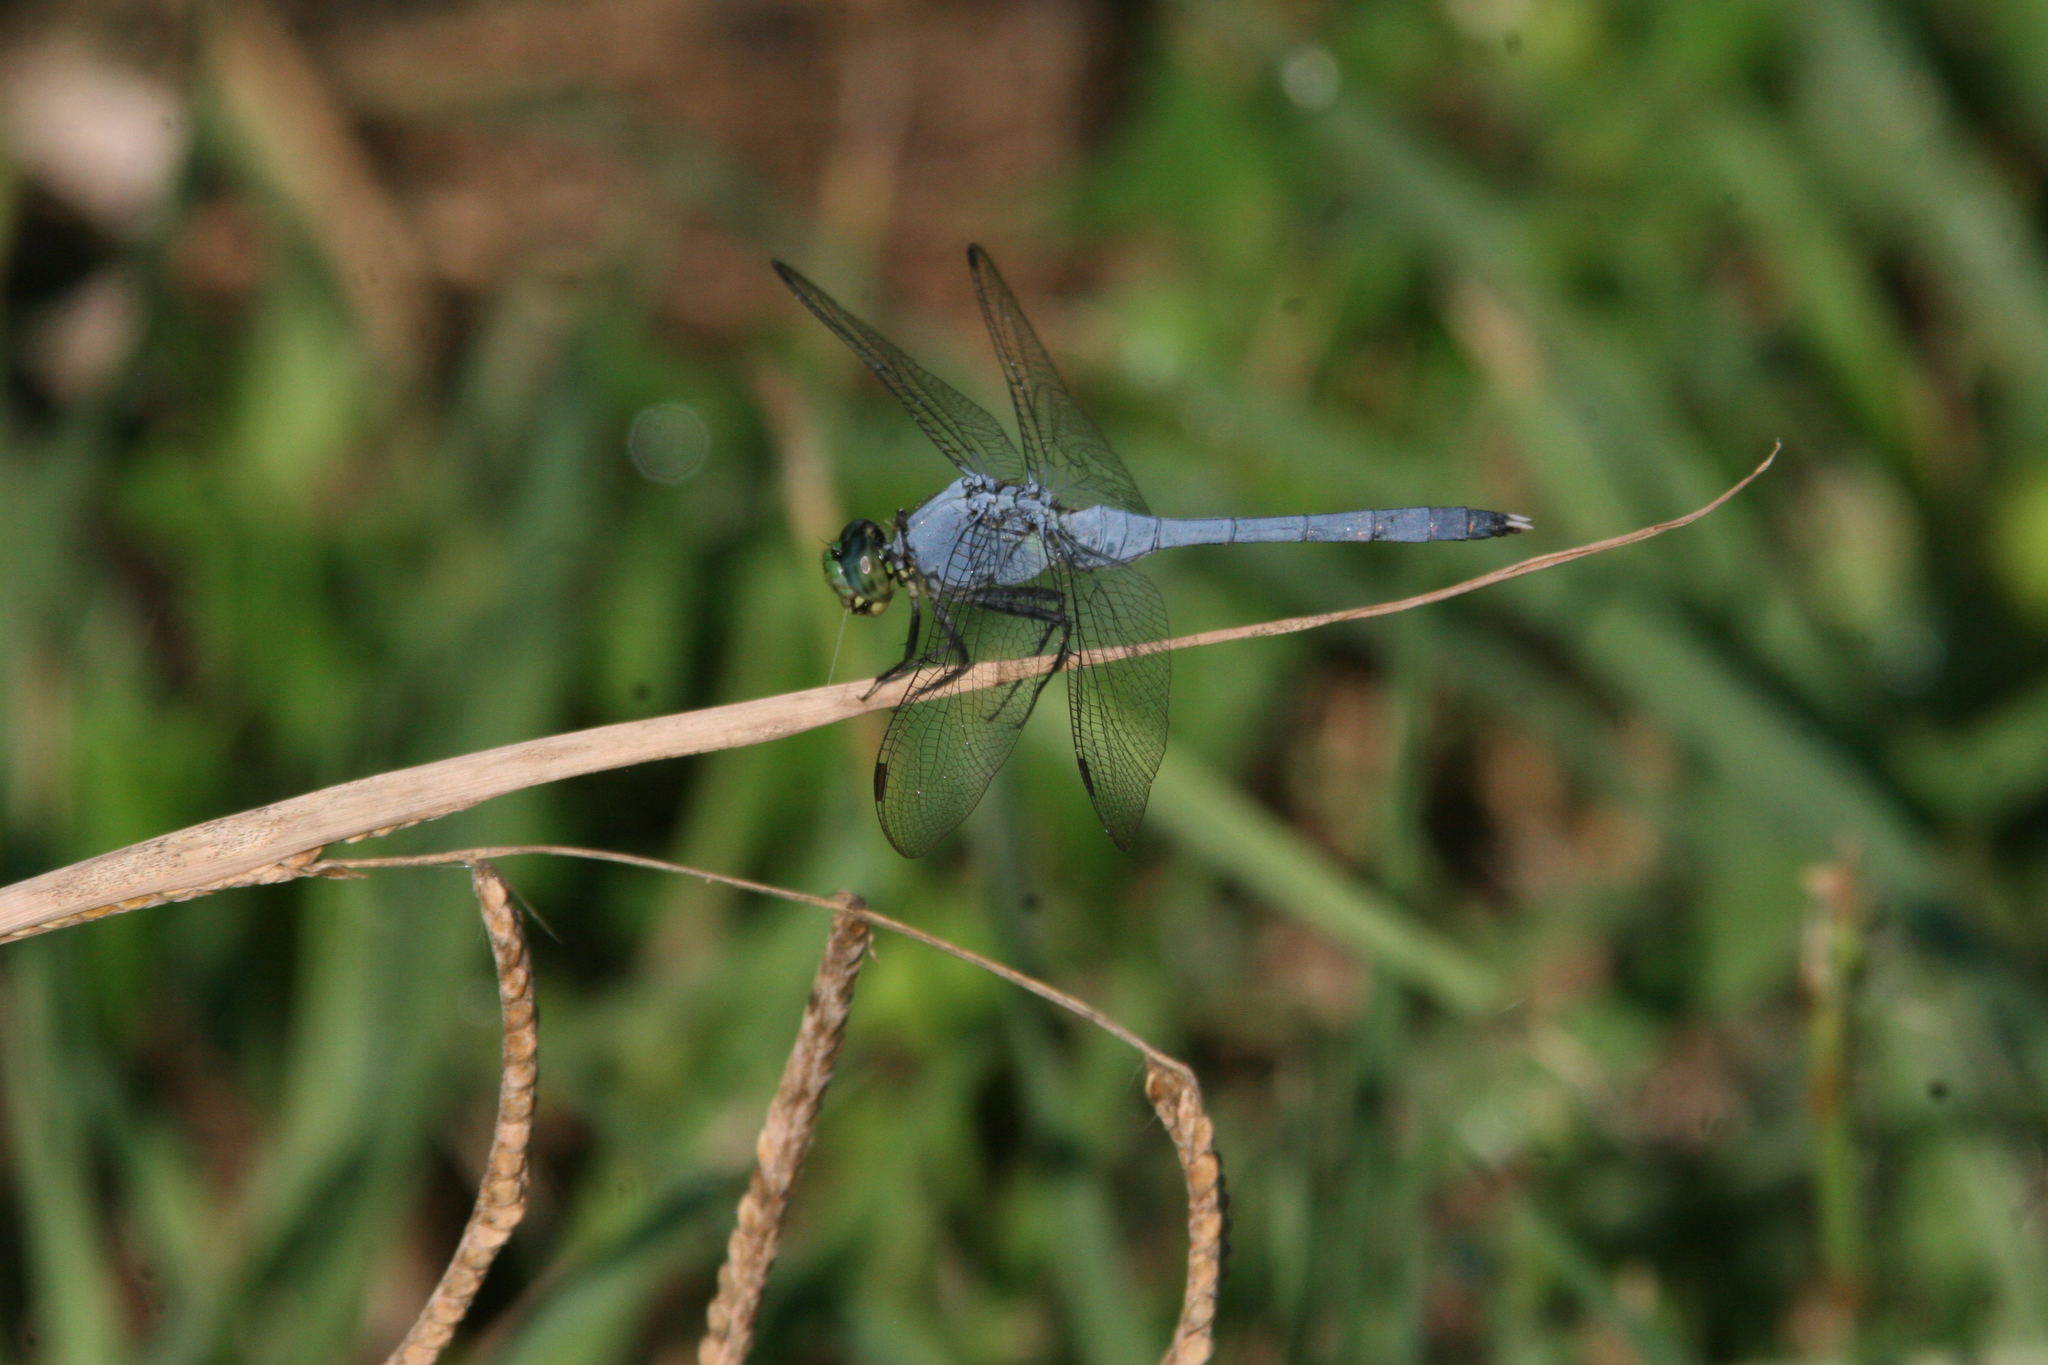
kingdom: Animalia
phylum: Arthropoda
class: Insecta
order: Odonata
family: Libellulidae
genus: Erythemis
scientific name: Erythemis simplicicollis
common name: Eastern pondhawk
